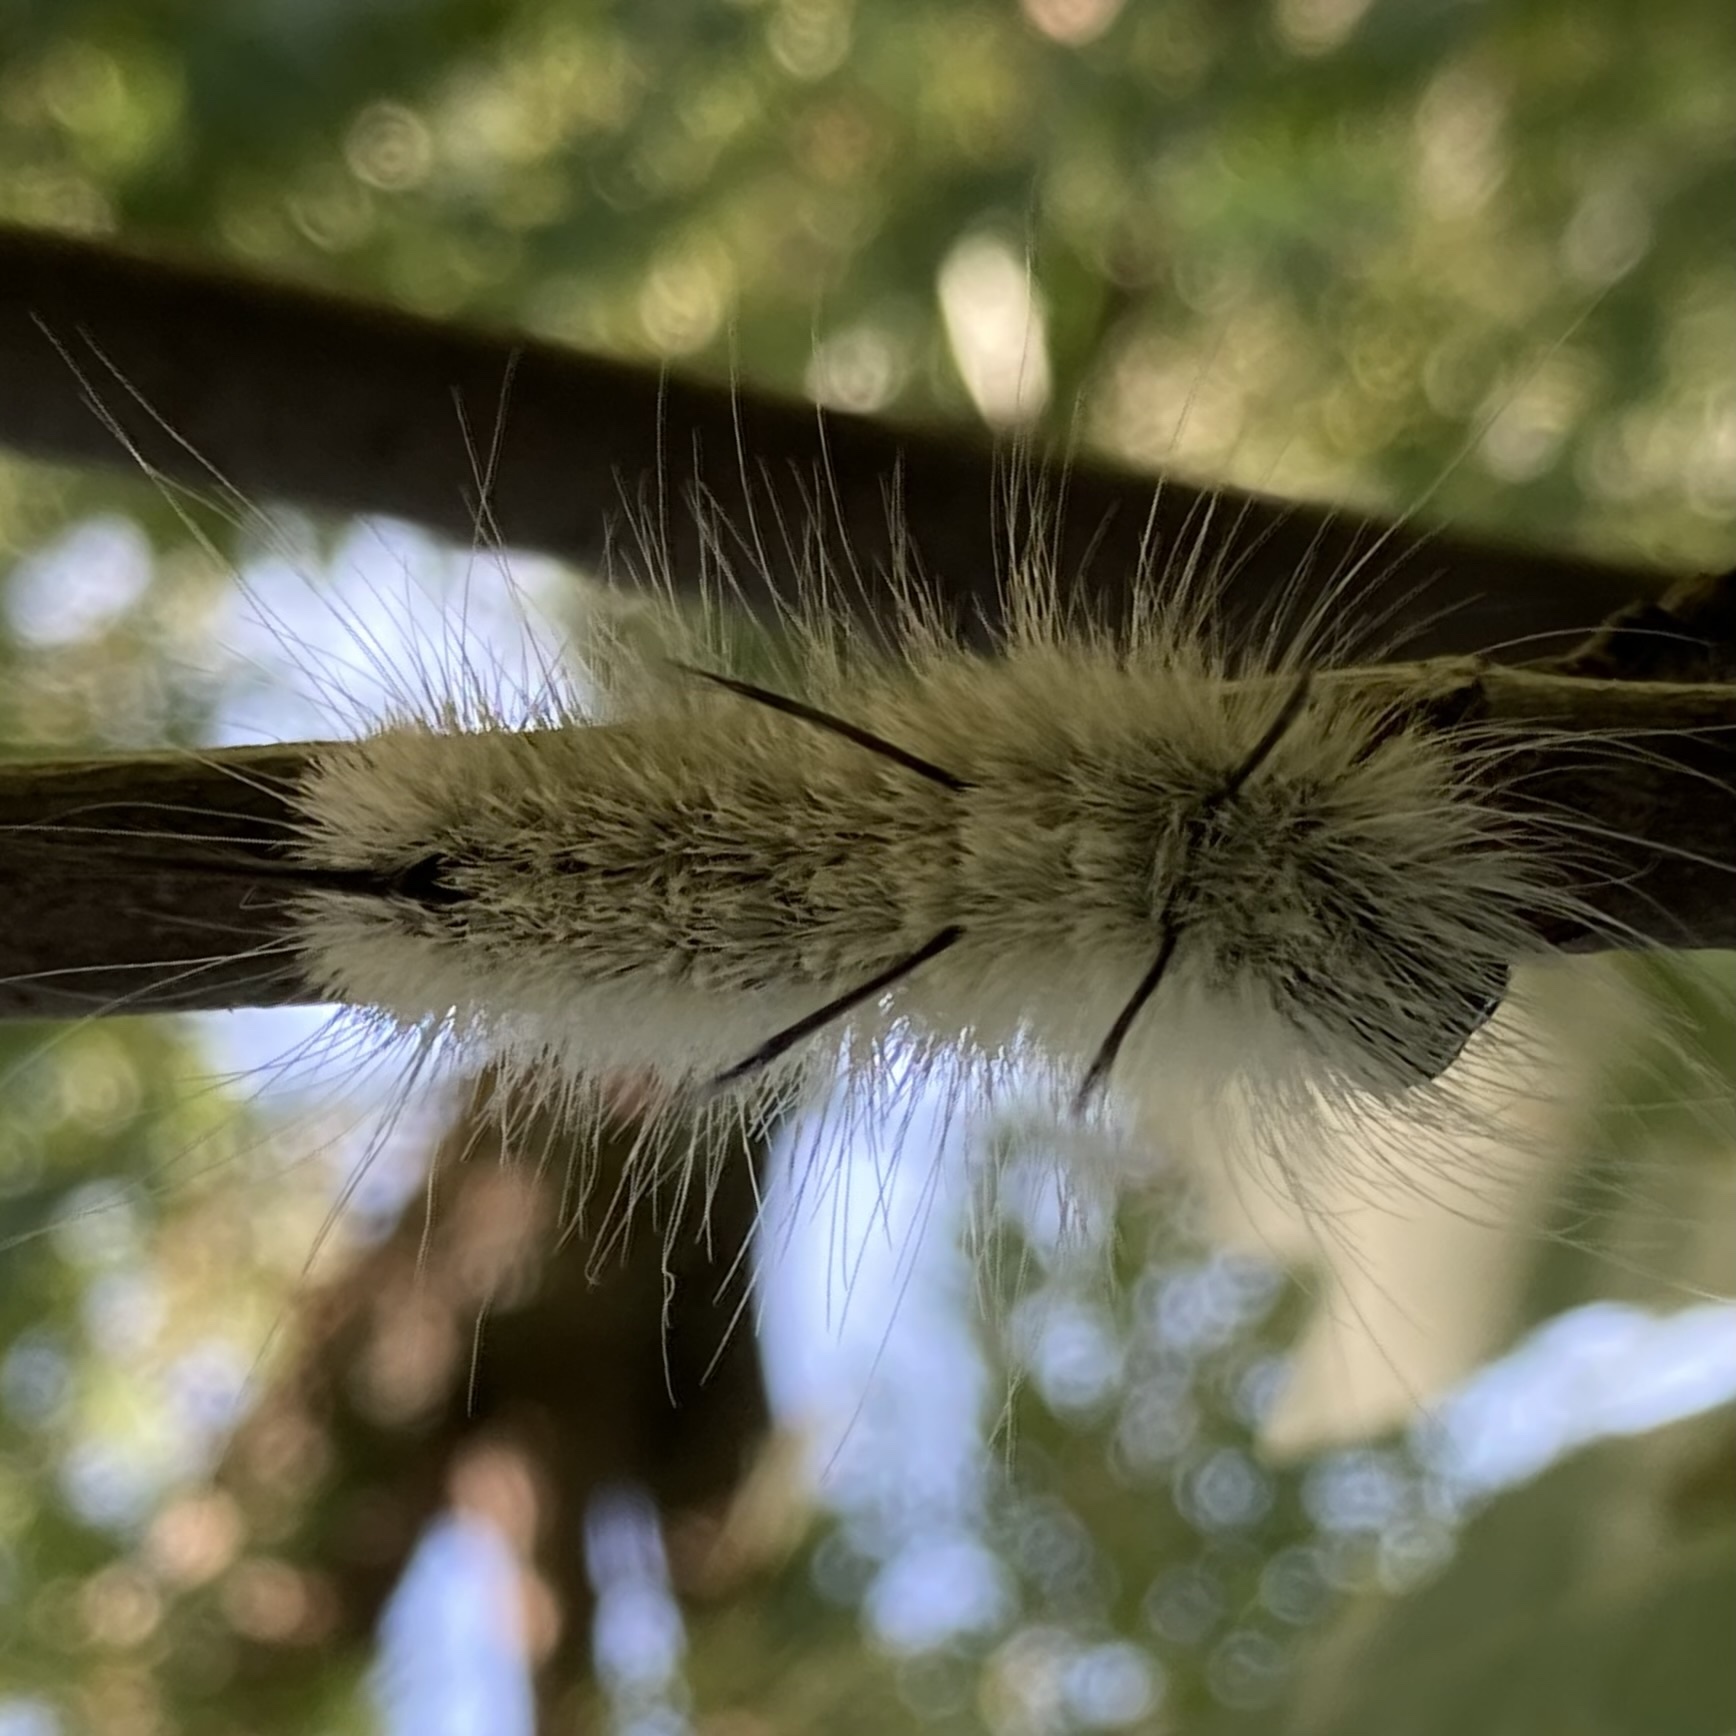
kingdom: Animalia
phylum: Arthropoda
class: Insecta
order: Lepidoptera
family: Noctuidae
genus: Acronicta
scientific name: Acronicta americana
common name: American dagger
